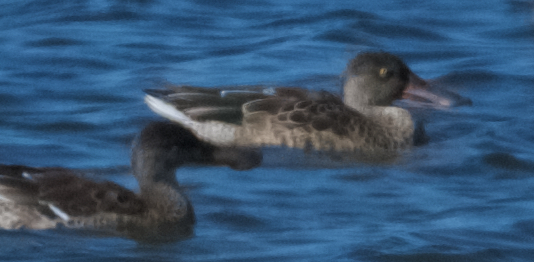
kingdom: Animalia
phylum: Chordata
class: Aves
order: Anseriformes
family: Anatidae
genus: Spatula
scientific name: Spatula clypeata
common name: Northern shoveler
